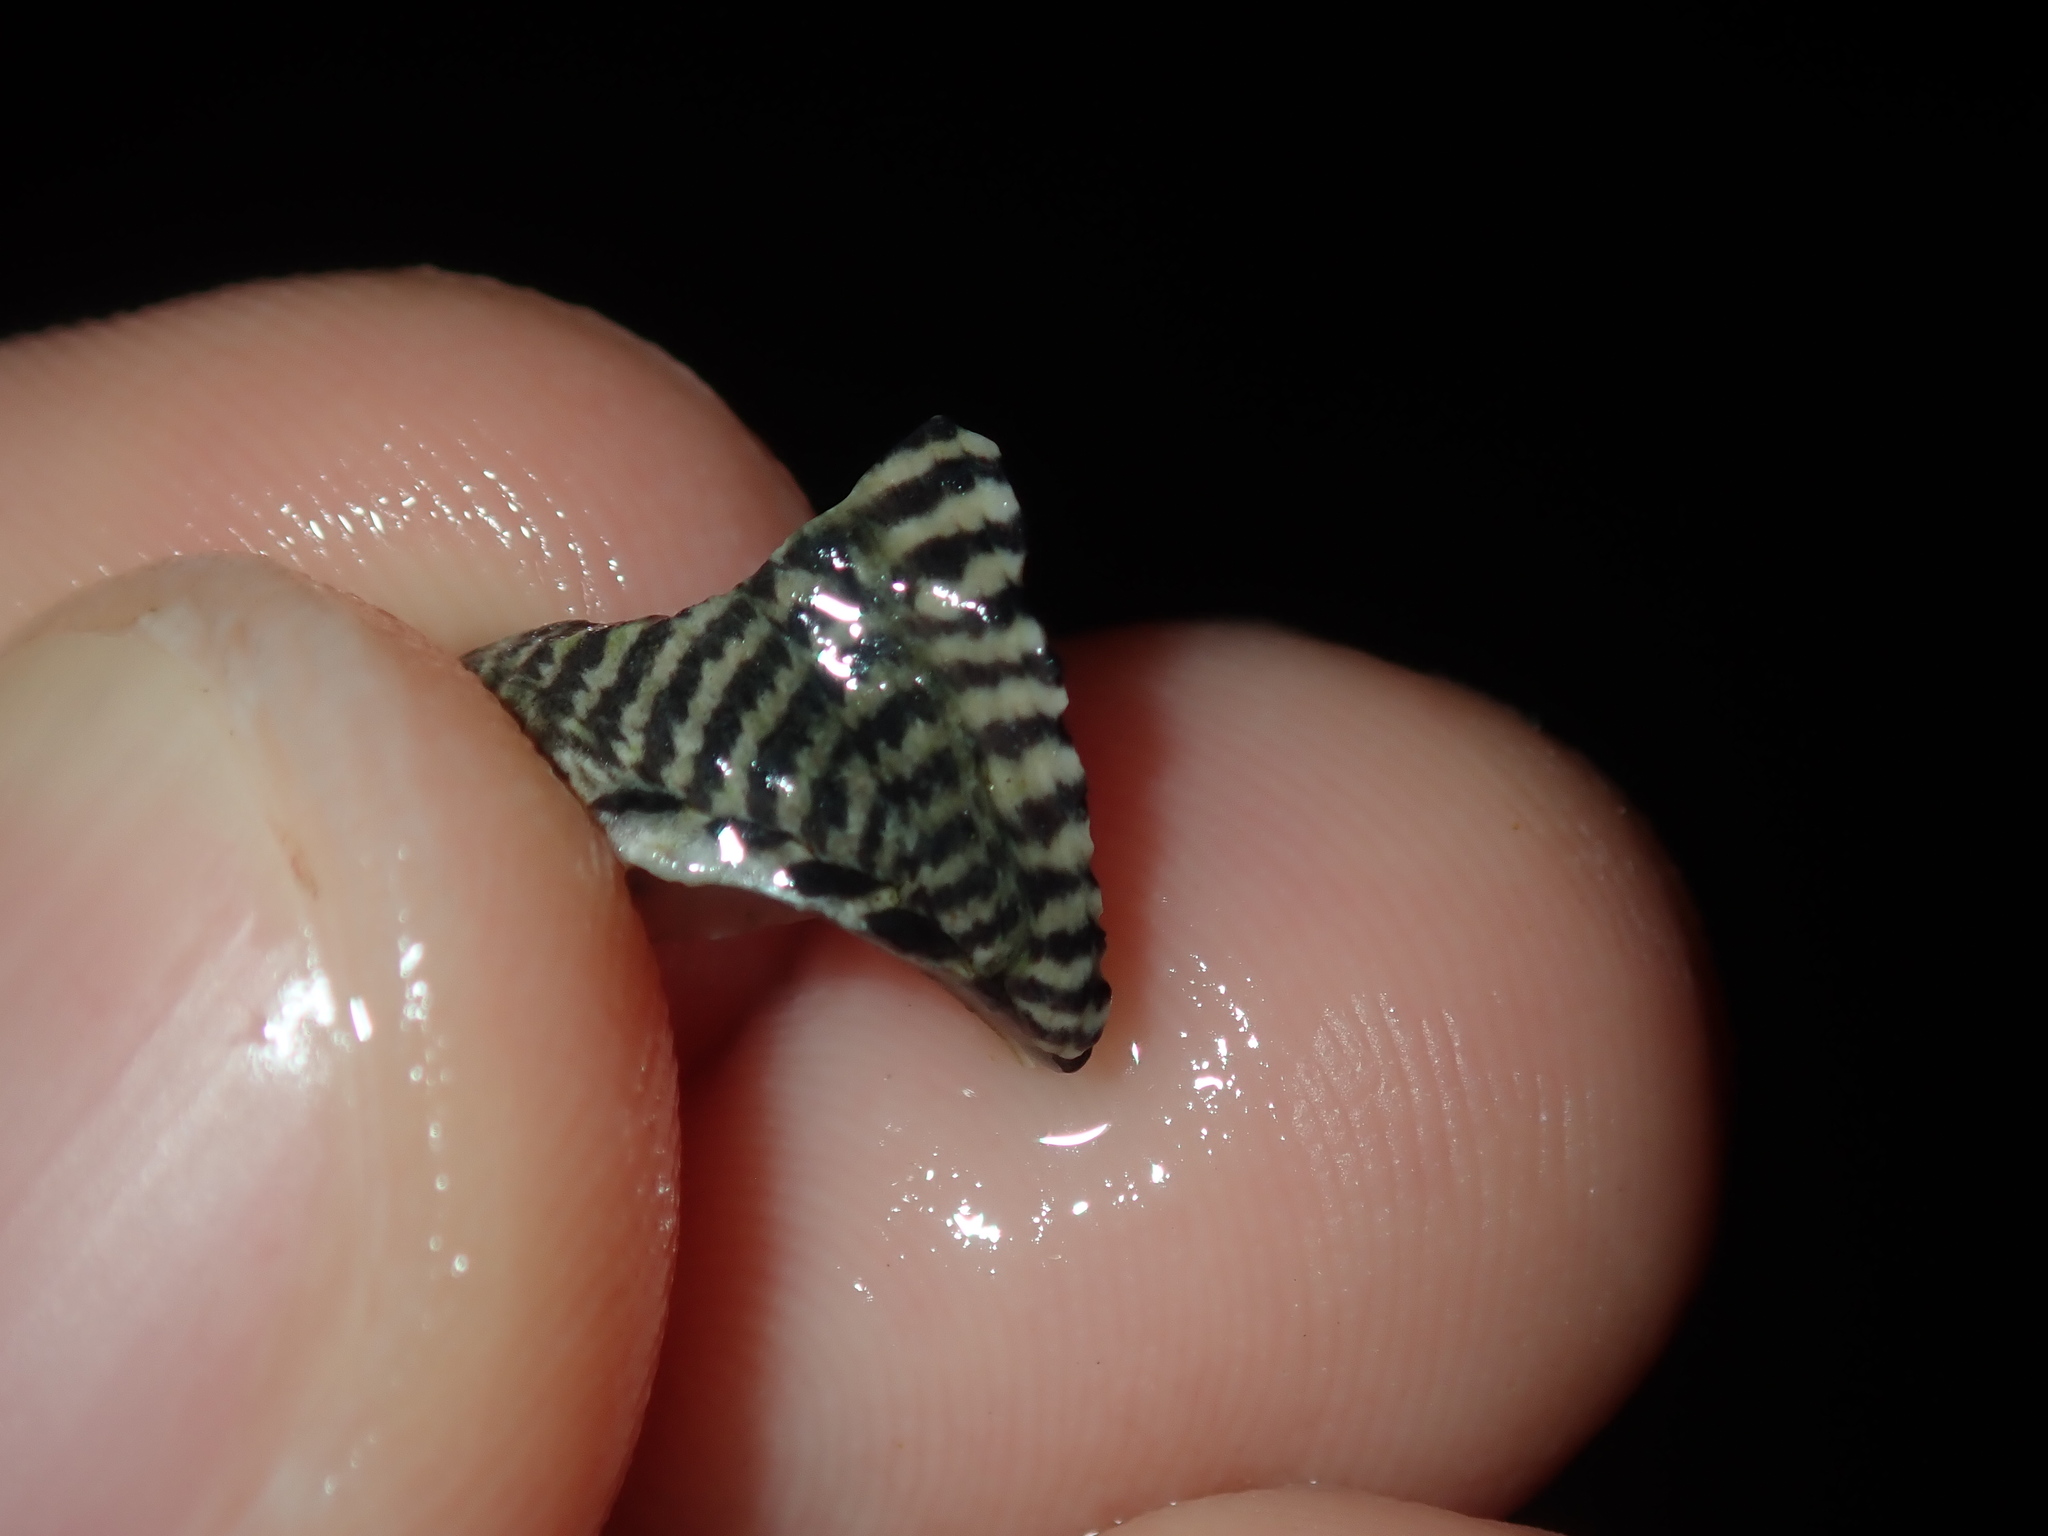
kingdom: Animalia
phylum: Mollusca
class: Gastropoda
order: Trochida
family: Trochidae
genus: Austrocochlea
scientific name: Austrocochlea porcata
